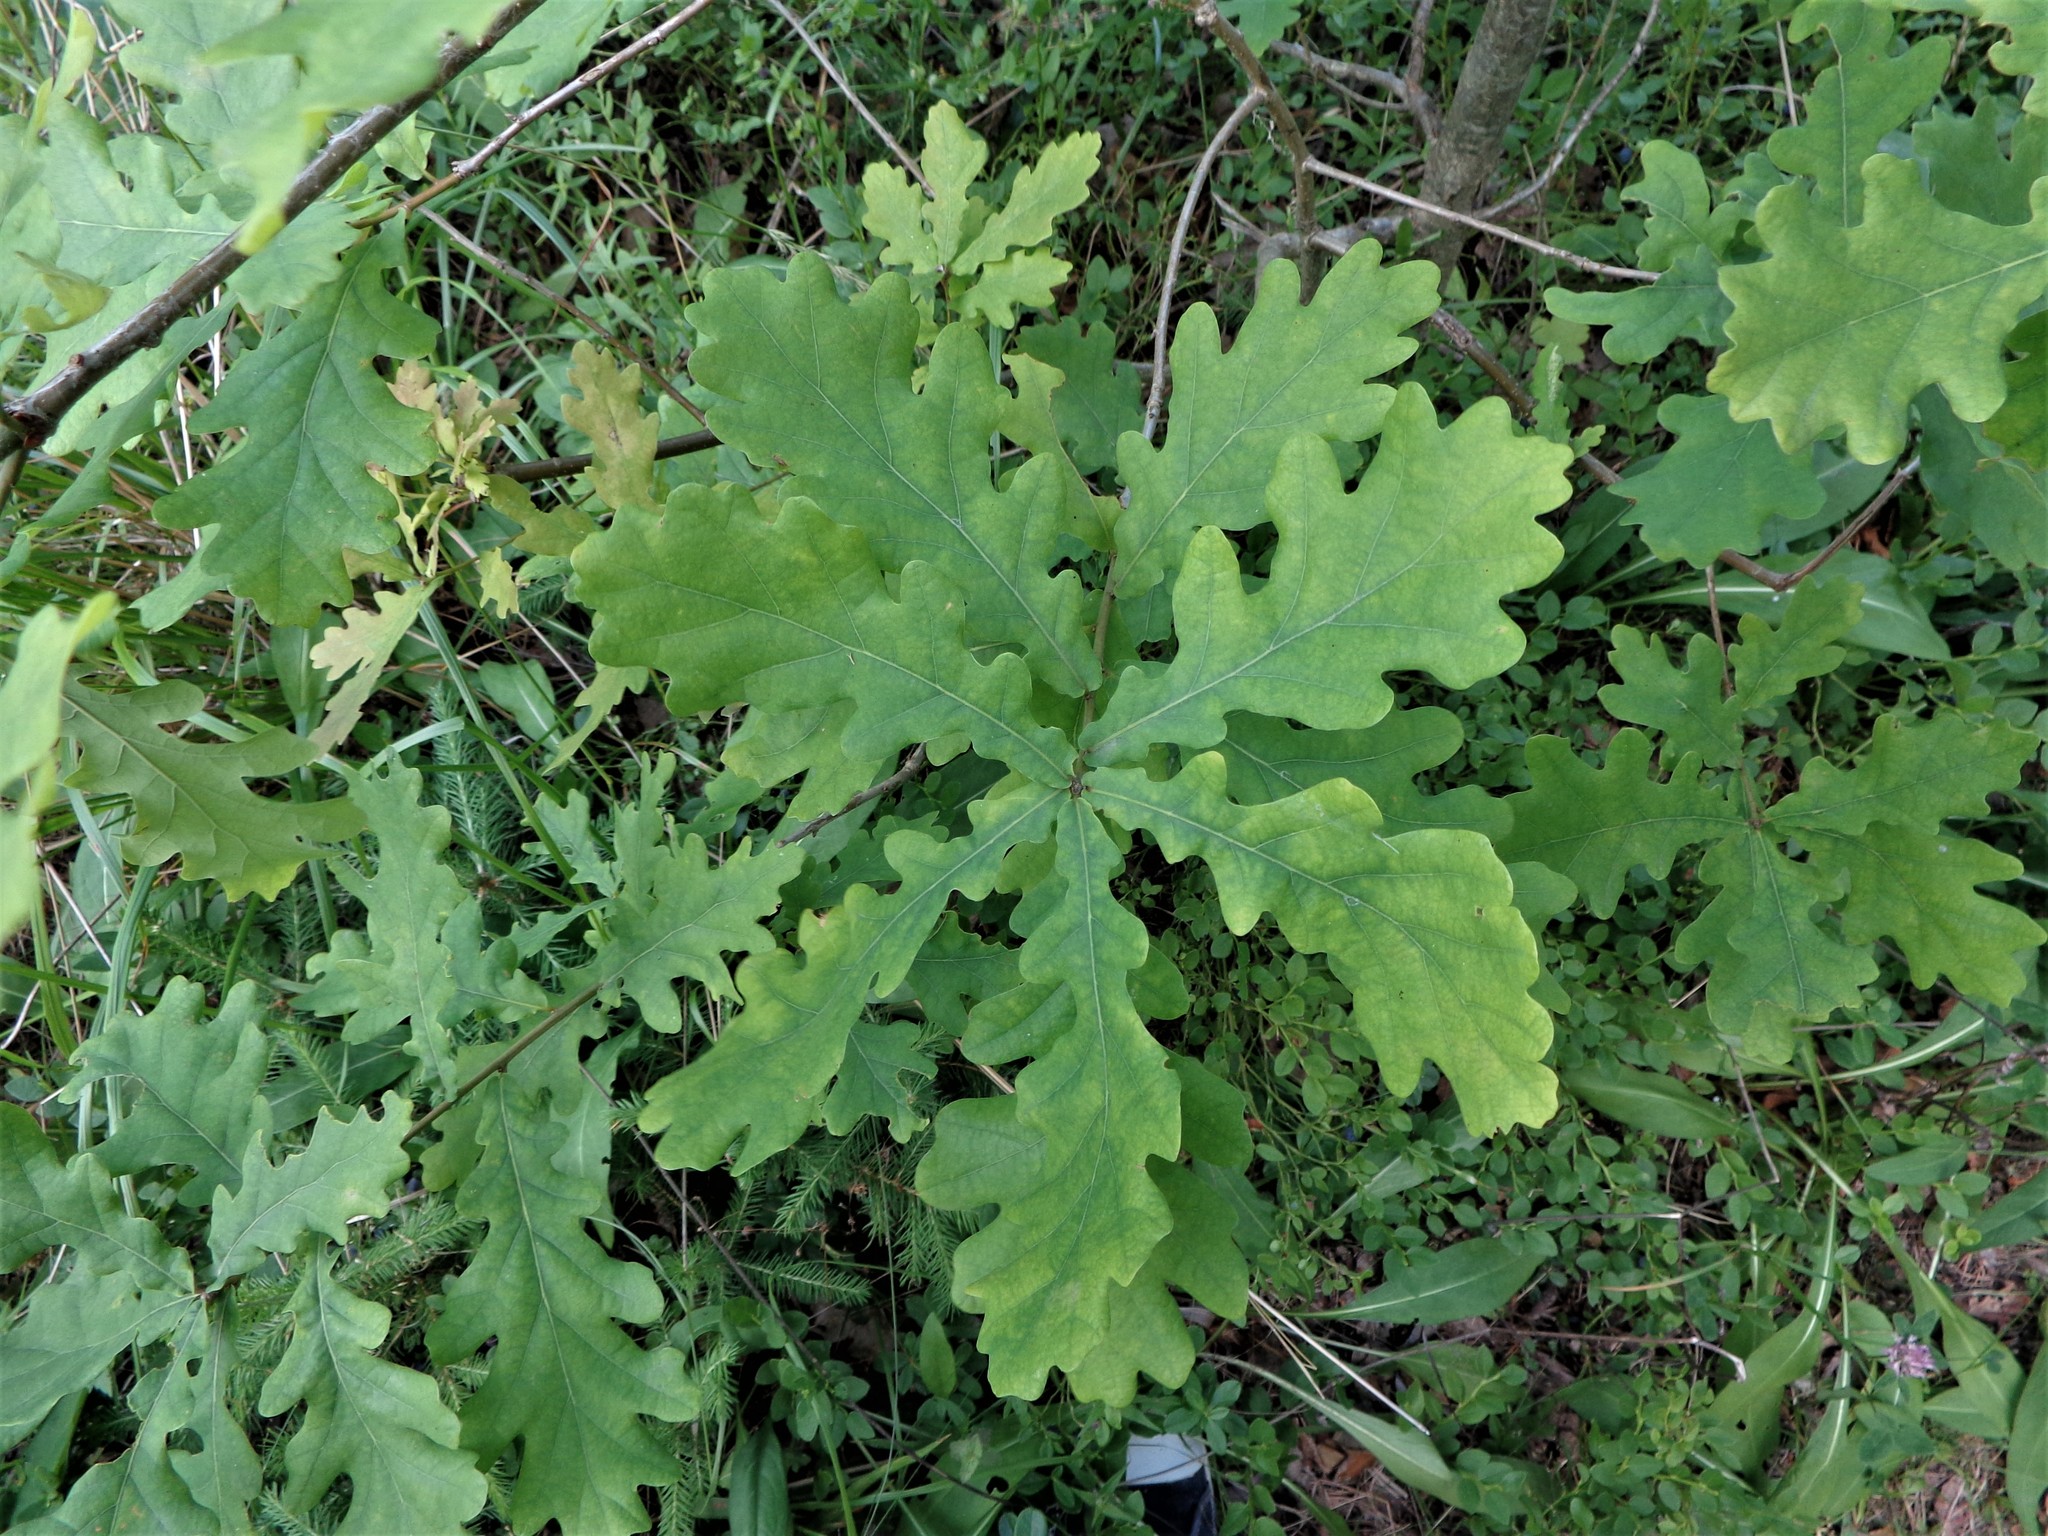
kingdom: Plantae
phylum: Tracheophyta
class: Magnoliopsida
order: Fagales
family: Fagaceae
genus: Quercus
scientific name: Quercus robur
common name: Pedunculate oak
